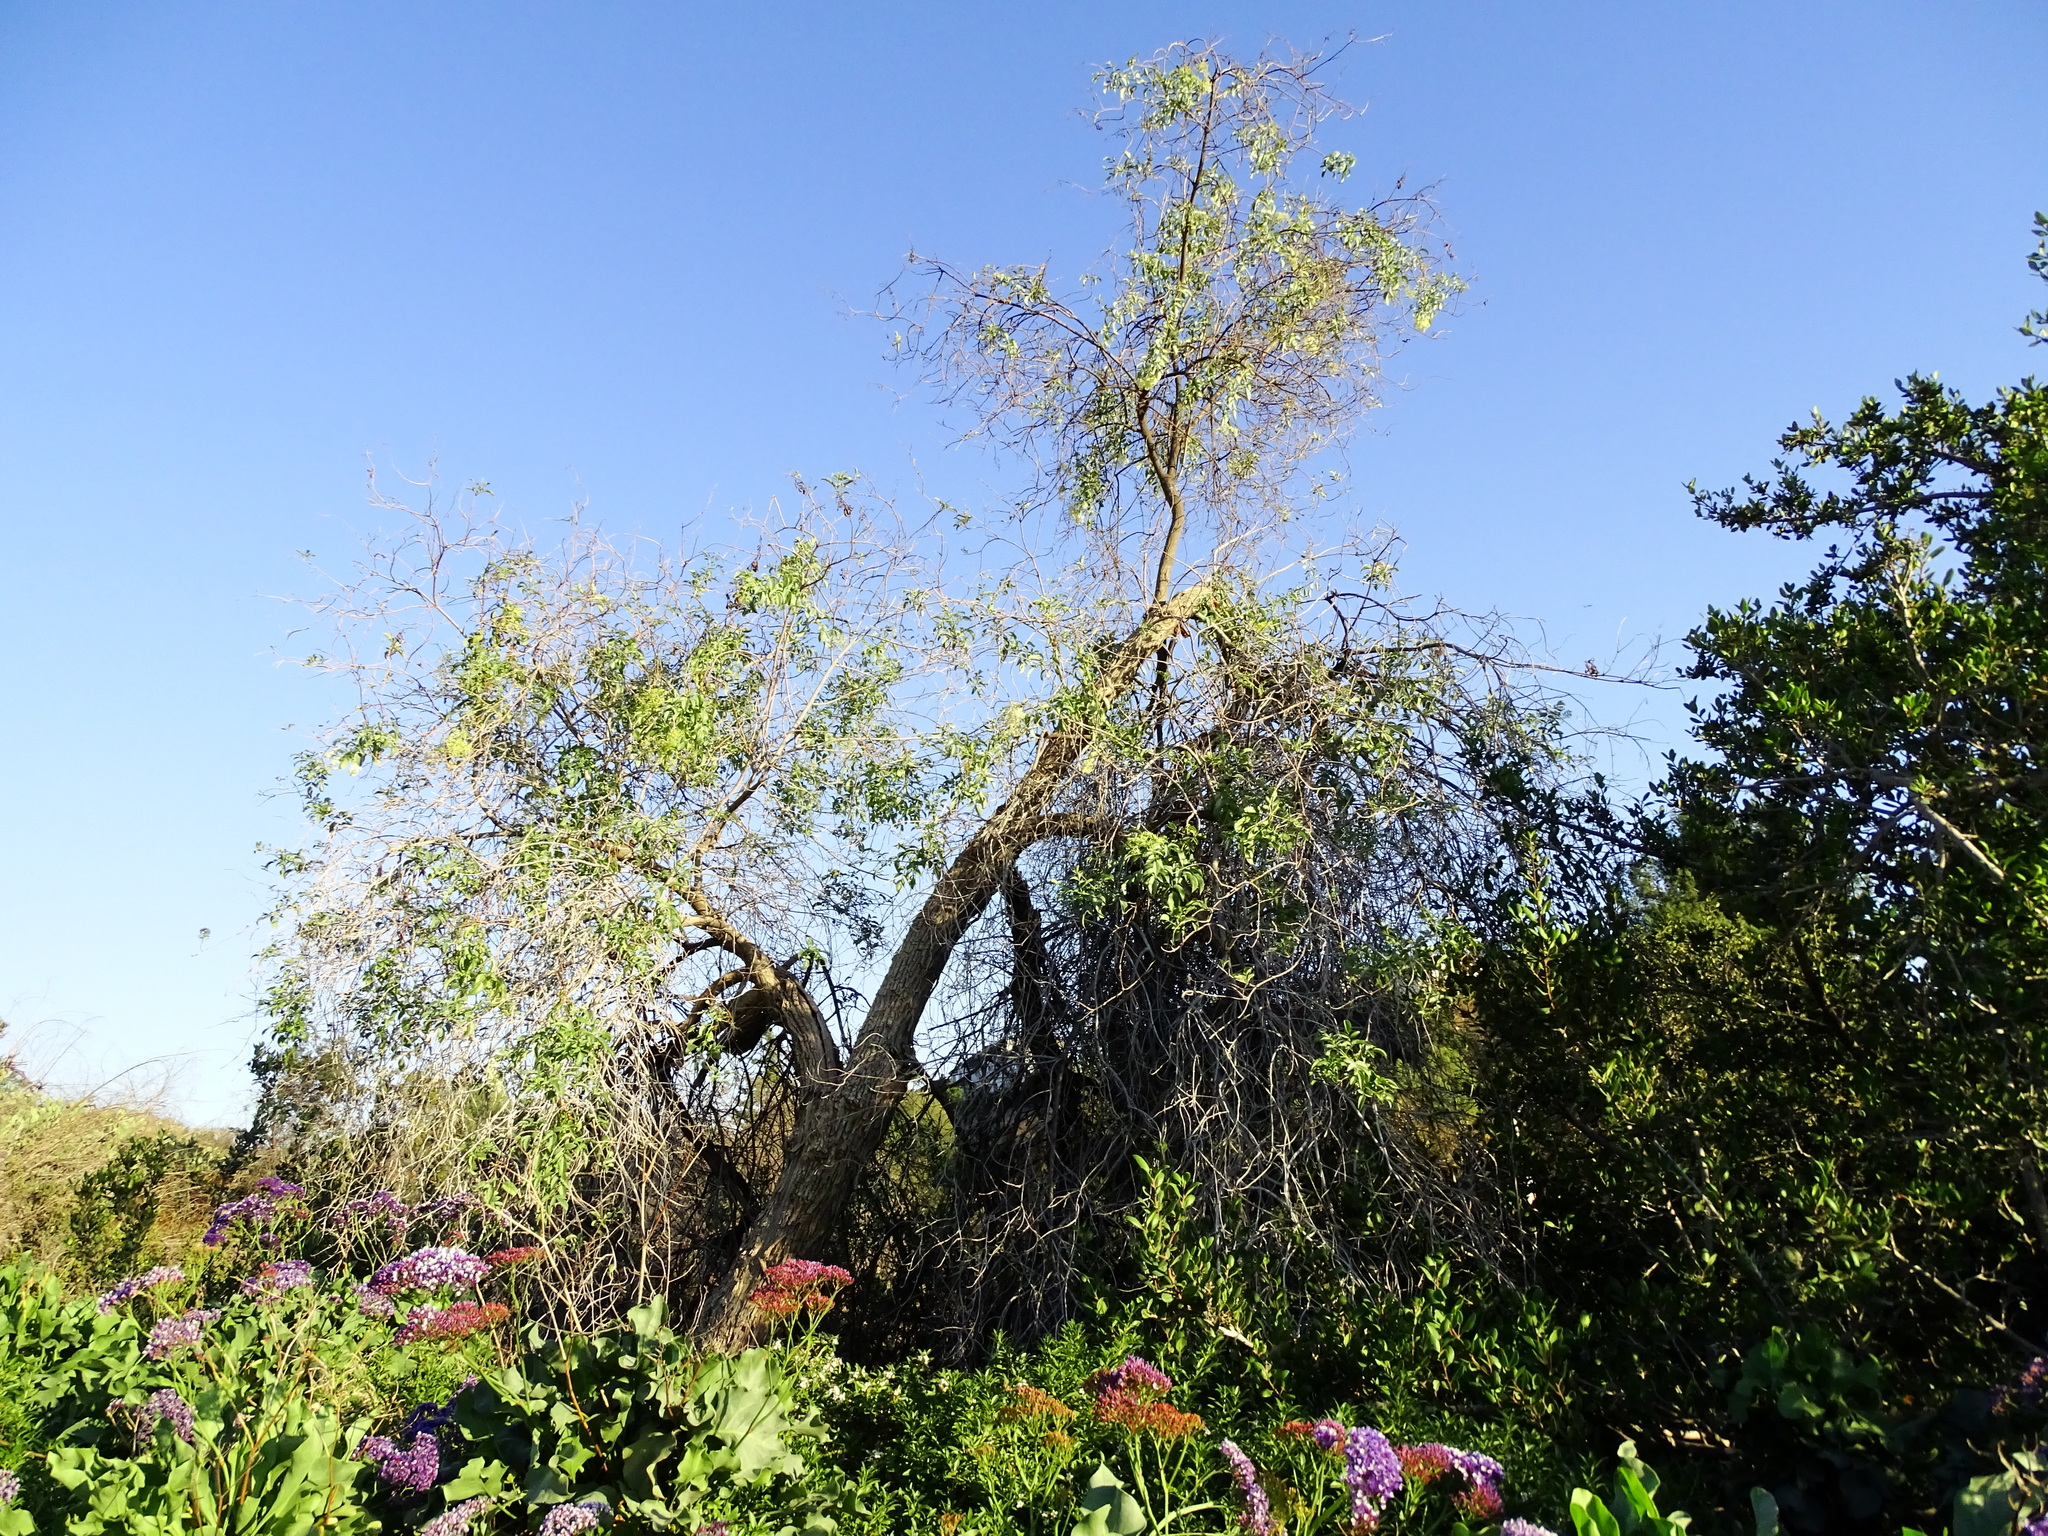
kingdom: Plantae
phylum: Tracheophyta
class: Magnoliopsida
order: Dipsacales
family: Viburnaceae
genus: Sambucus
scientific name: Sambucus cerulea
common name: Blue elder
